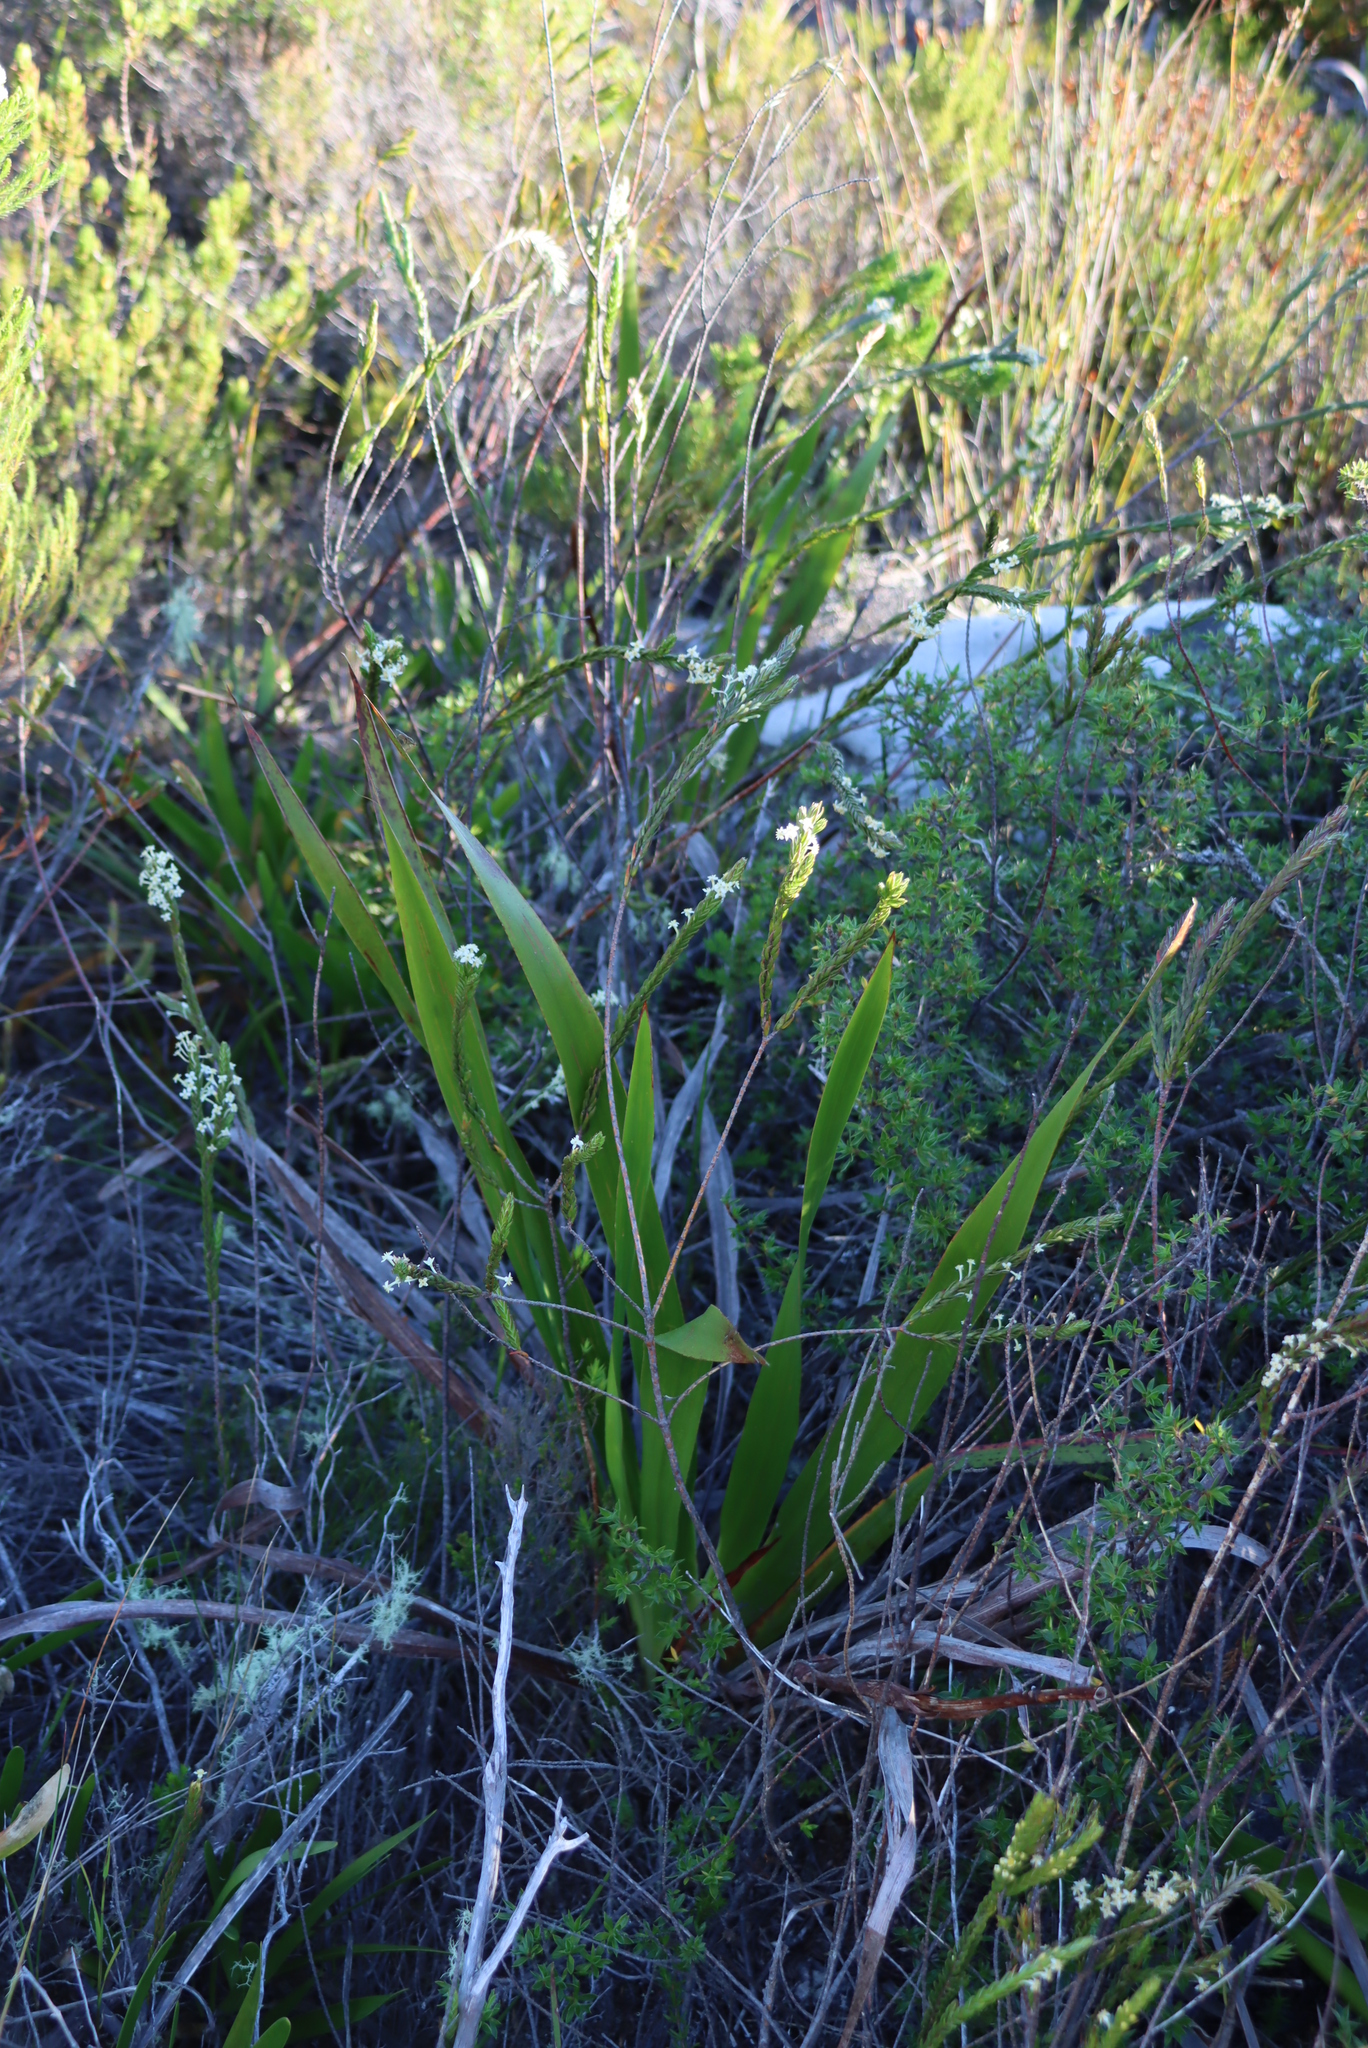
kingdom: Plantae
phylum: Tracheophyta
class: Magnoliopsida
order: Malvales
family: Thymelaeaceae
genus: Struthiola
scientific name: Struthiola ciliata
